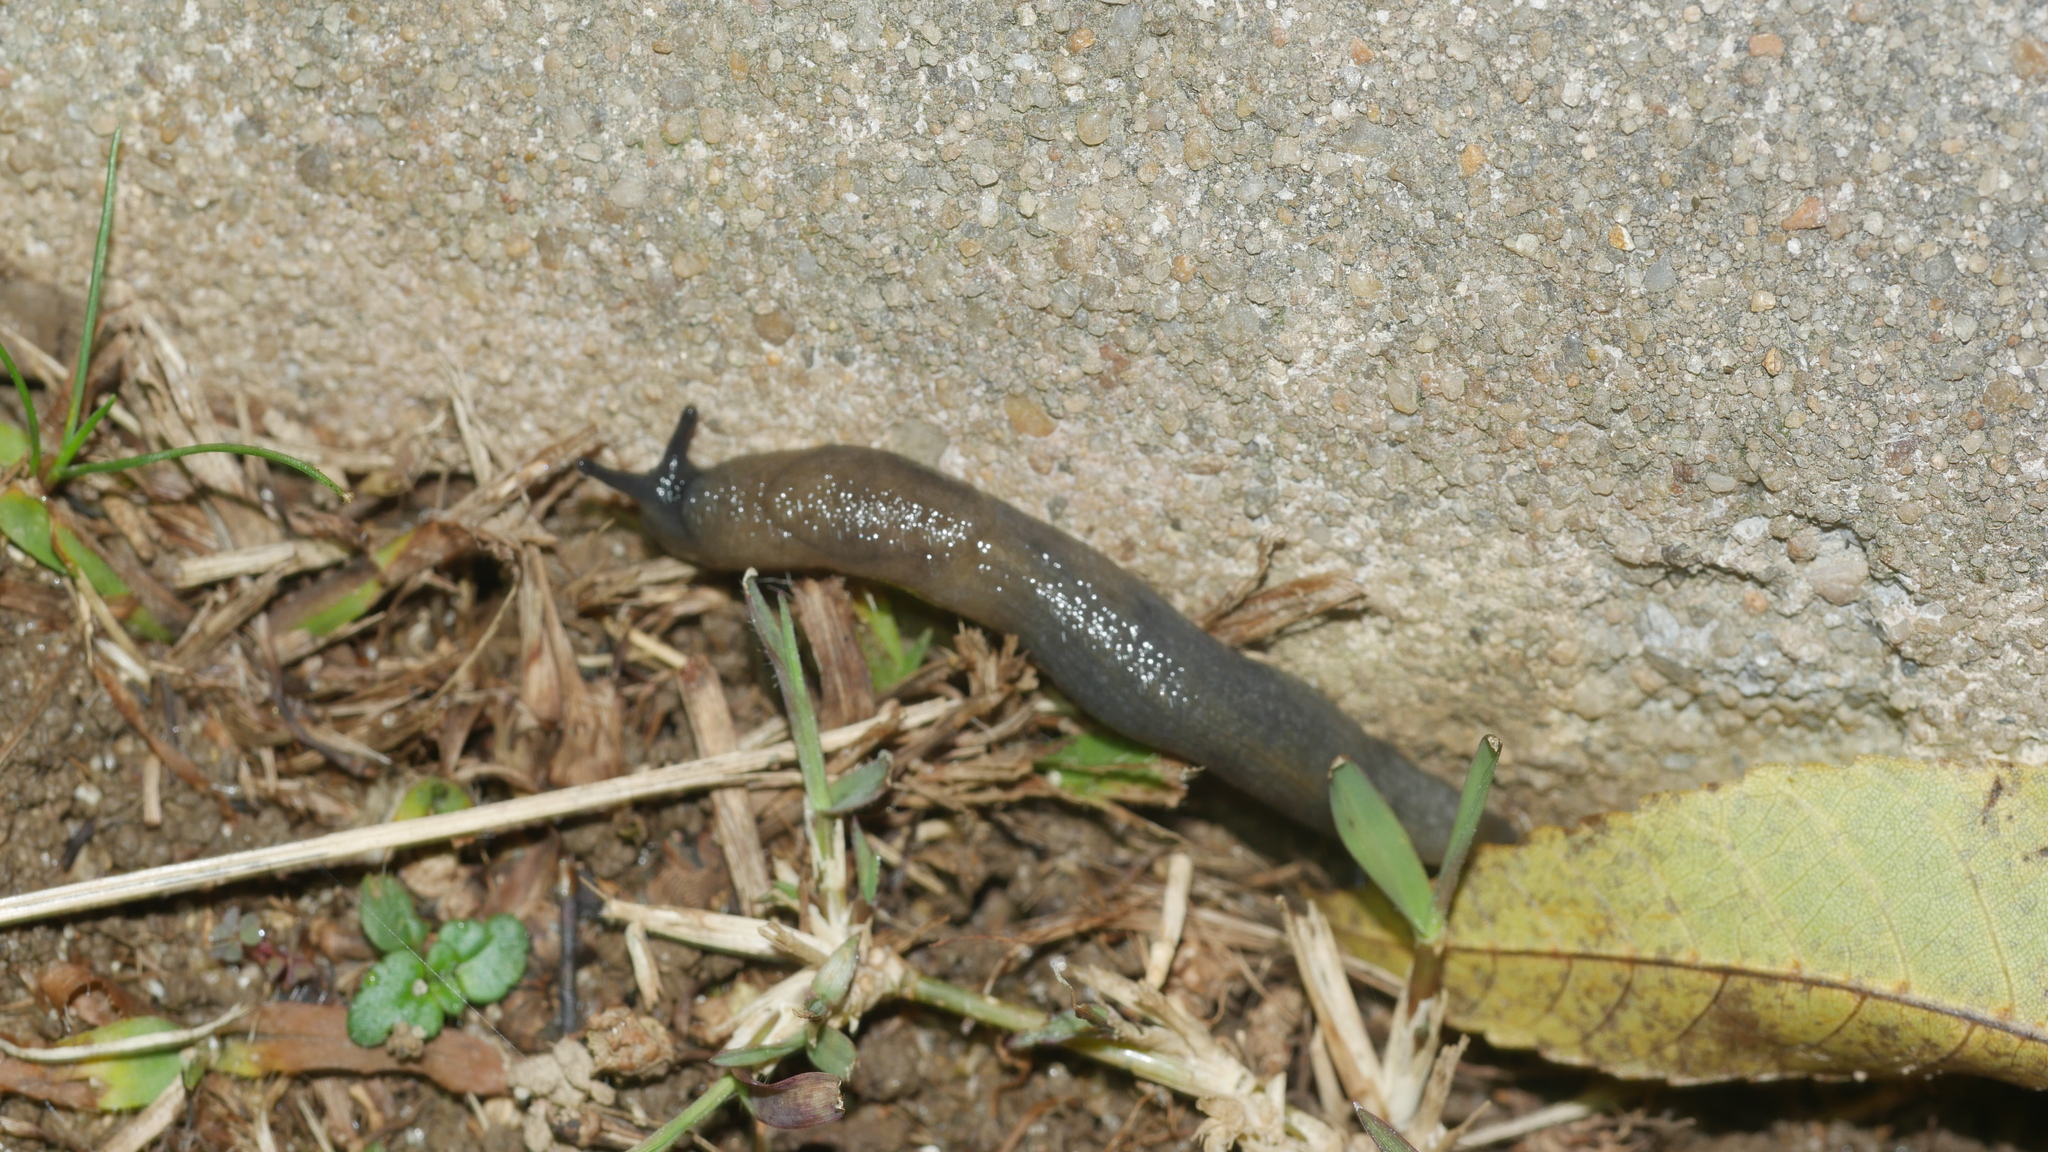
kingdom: Animalia
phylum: Mollusca
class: Gastropoda
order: Stylommatophora
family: Milacidae
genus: Milax
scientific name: Milax gagates
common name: Greenhouse slug
